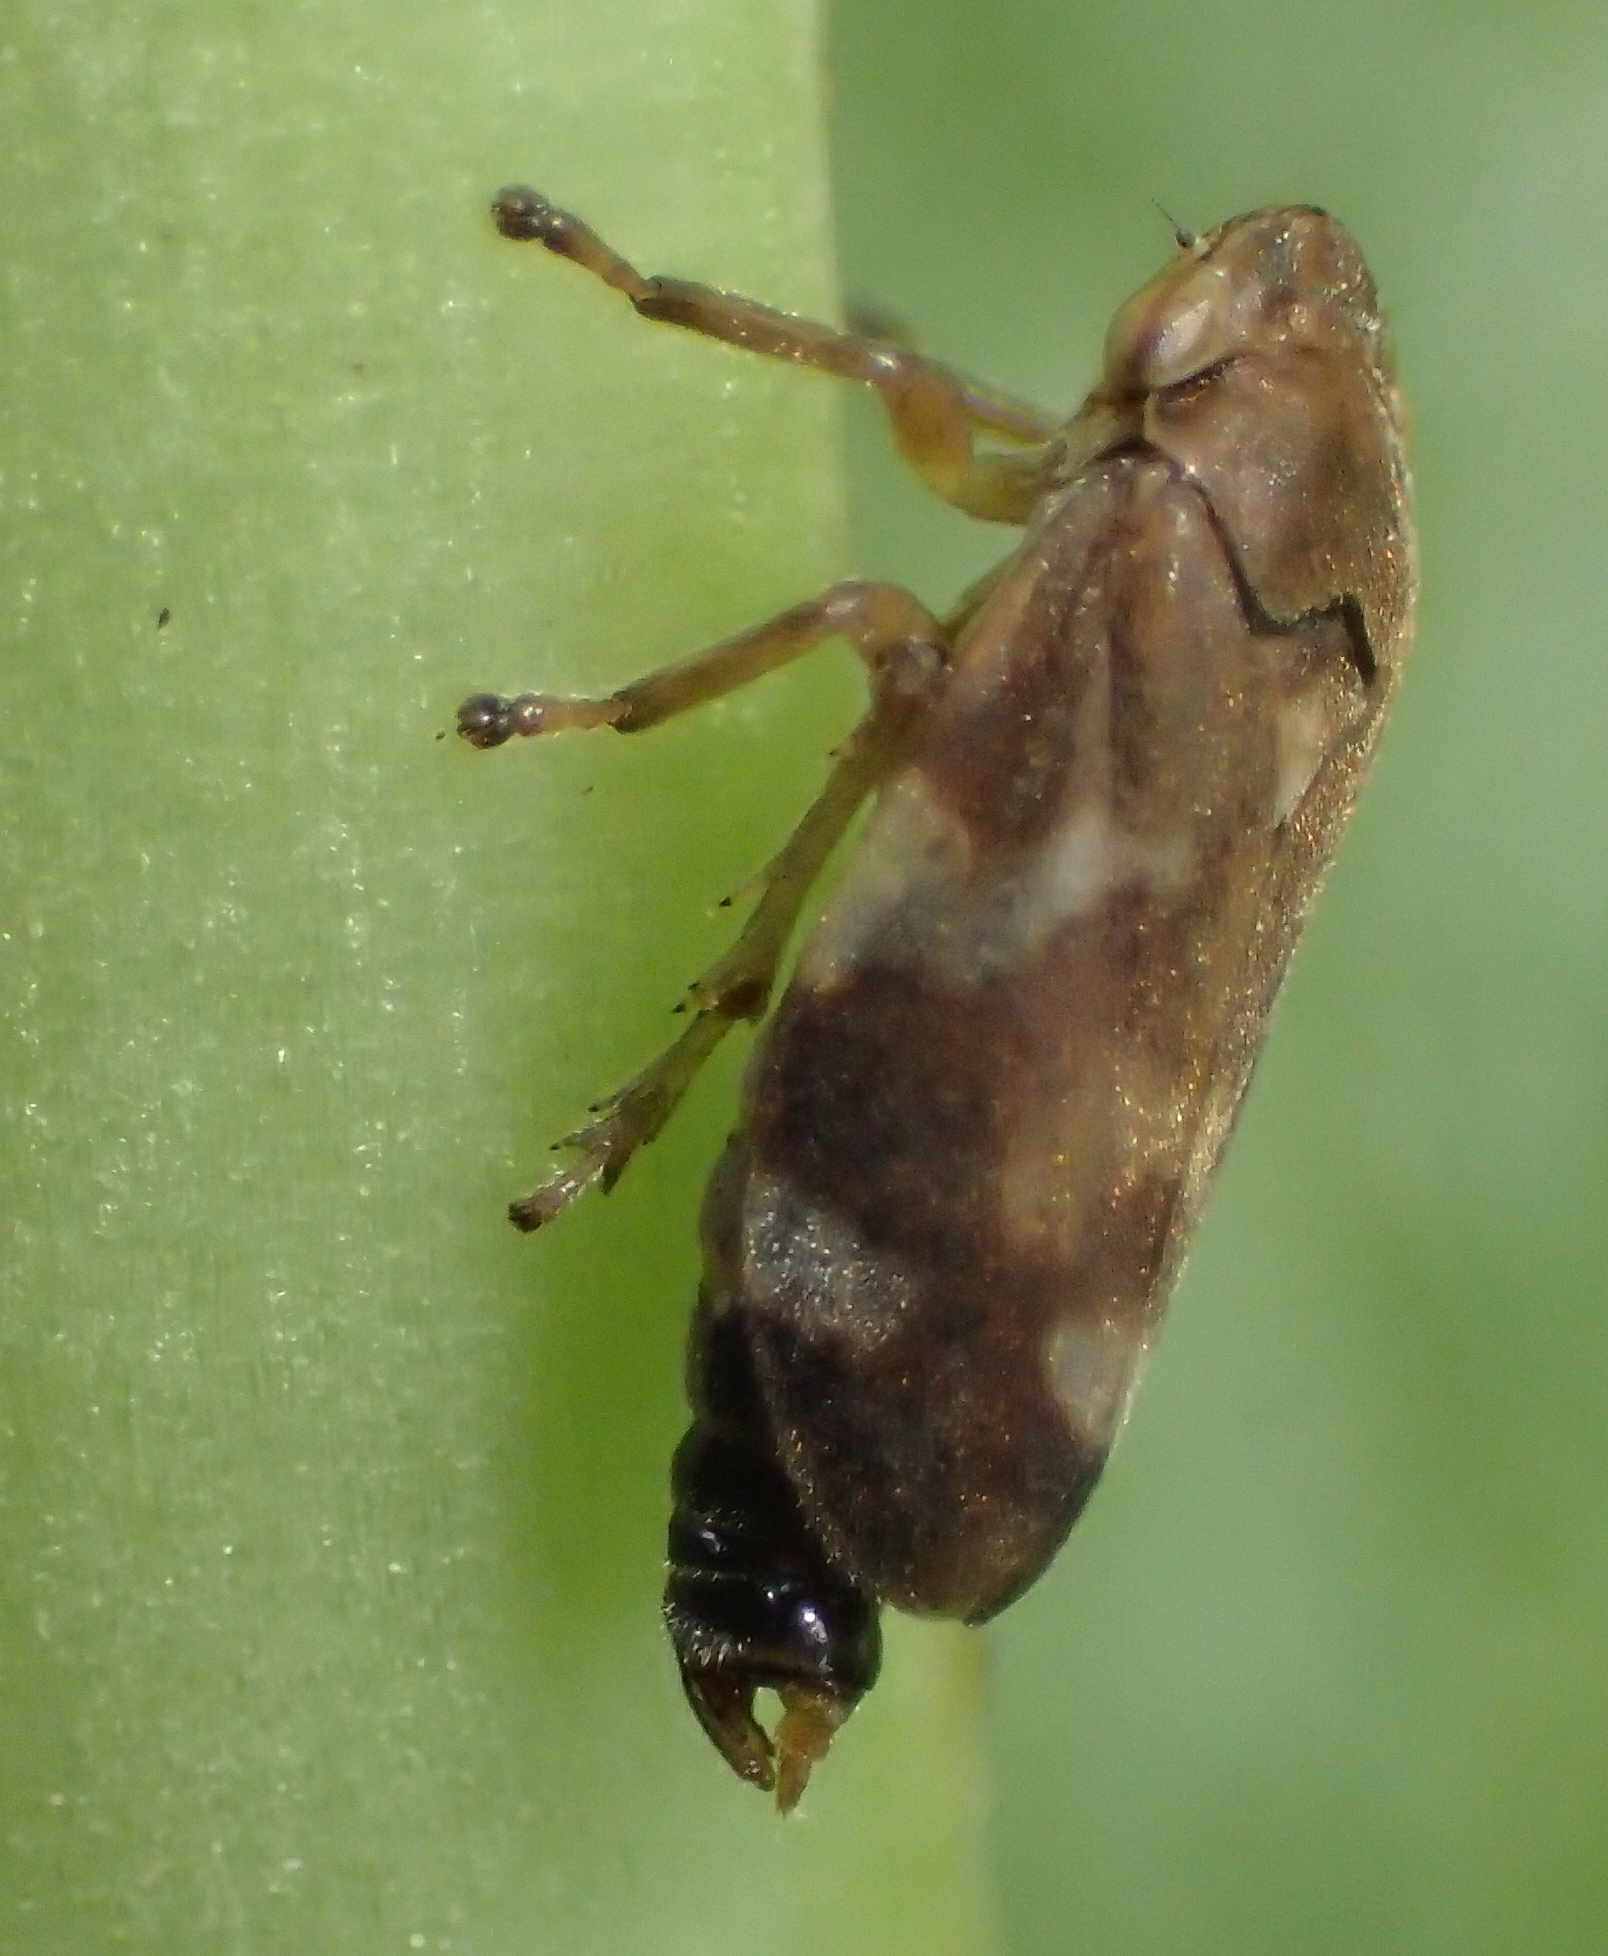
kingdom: Animalia
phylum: Arthropoda
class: Insecta
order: Hemiptera
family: Aphrophoridae
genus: Philaenus
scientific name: Philaenus spumarius
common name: Meadow spittlebug
